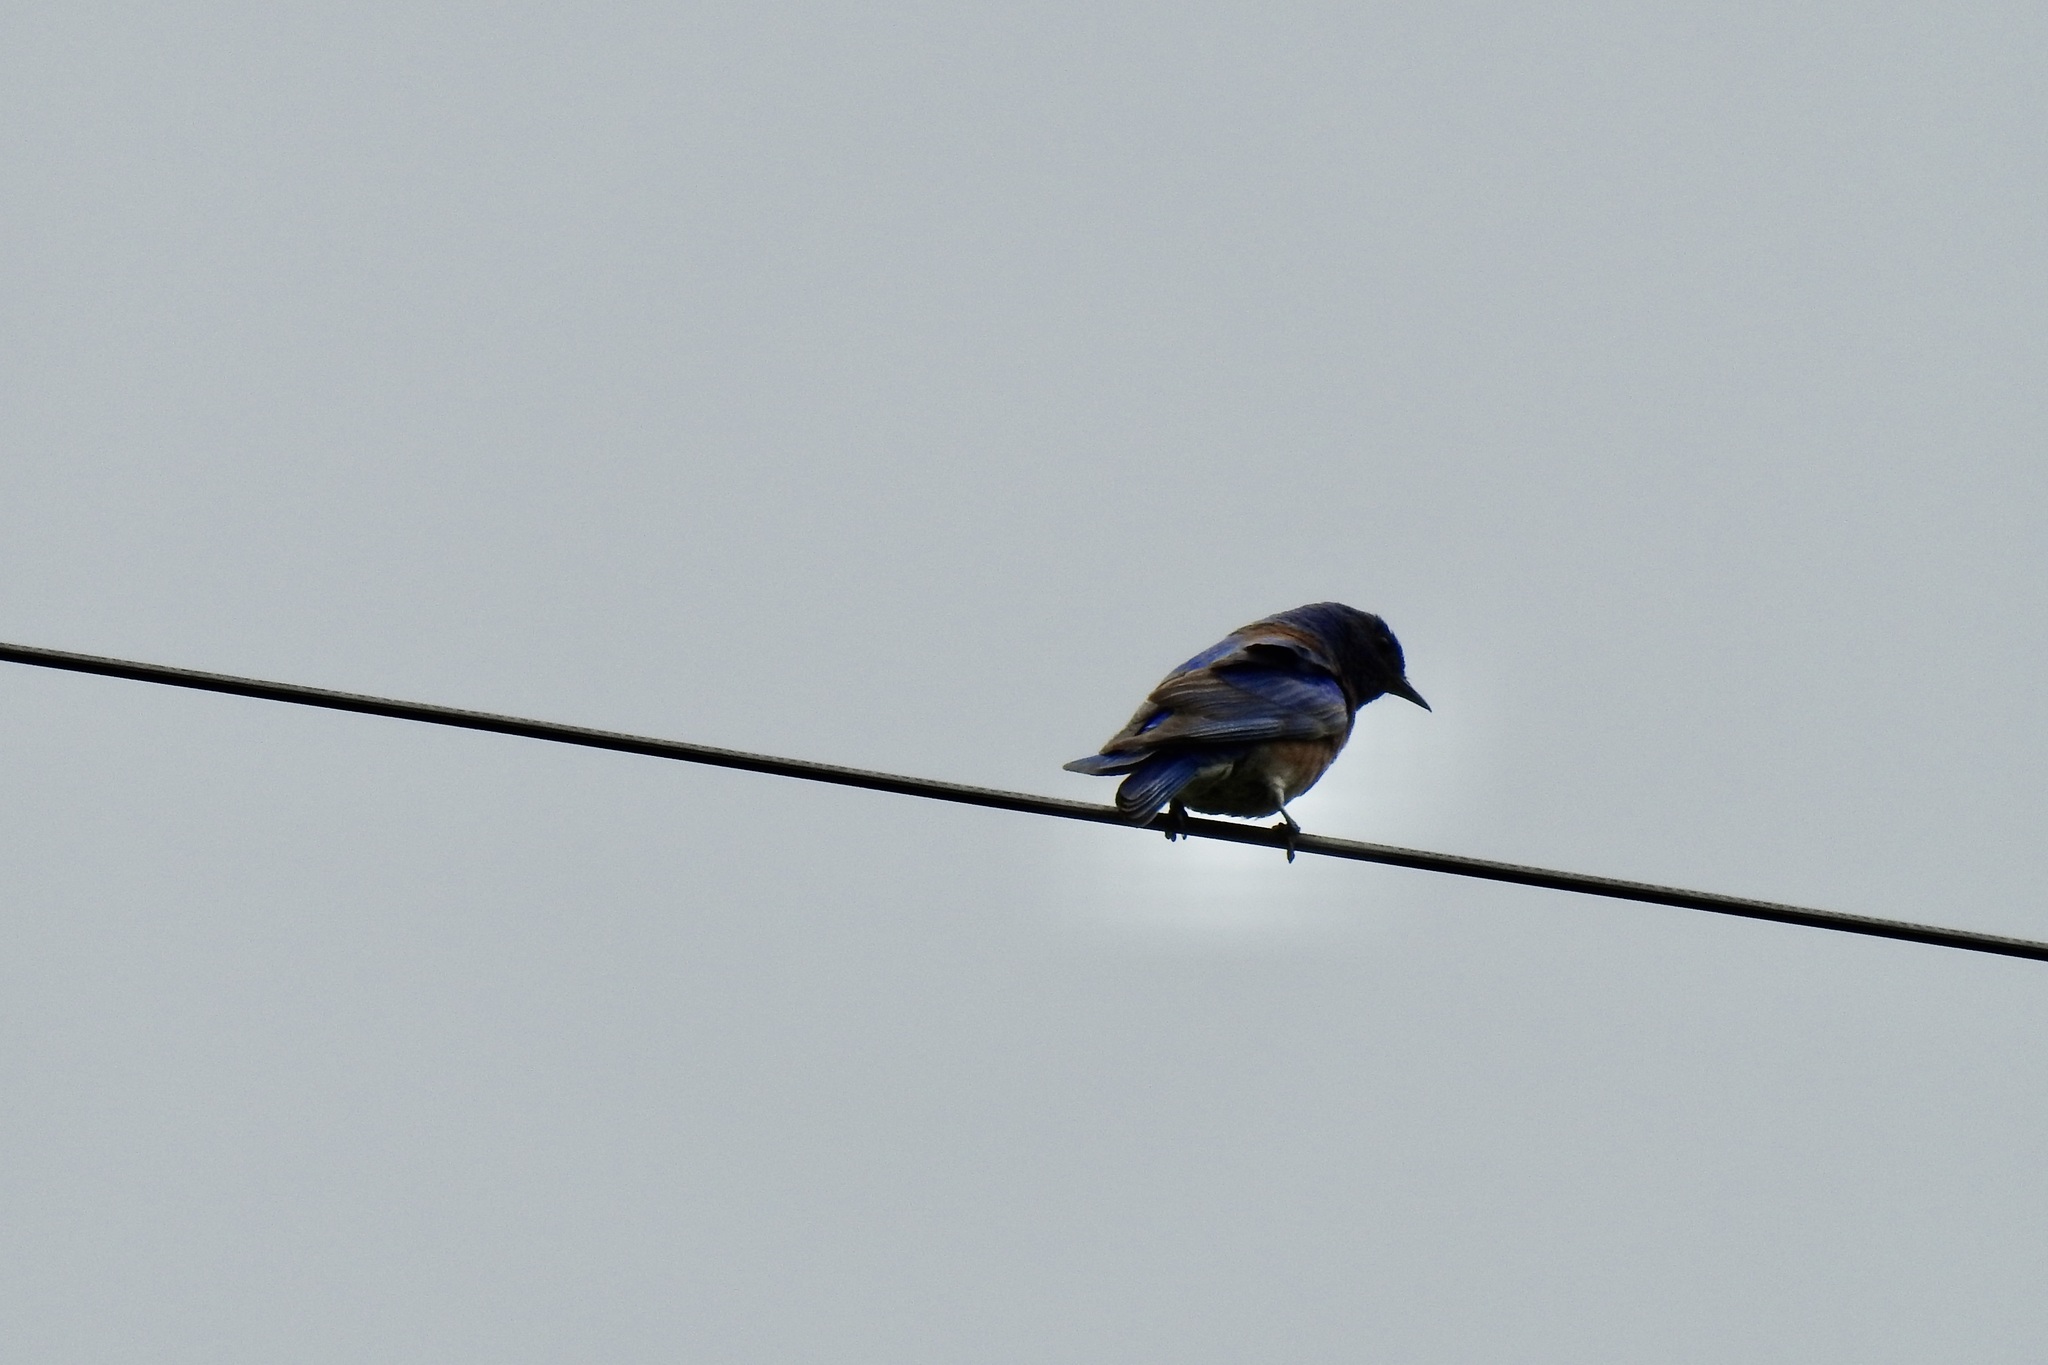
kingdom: Animalia
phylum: Chordata
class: Aves
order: Passeriformes
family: Turdidae
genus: Sialia
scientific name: Sialia mexicana
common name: Western bluebird
